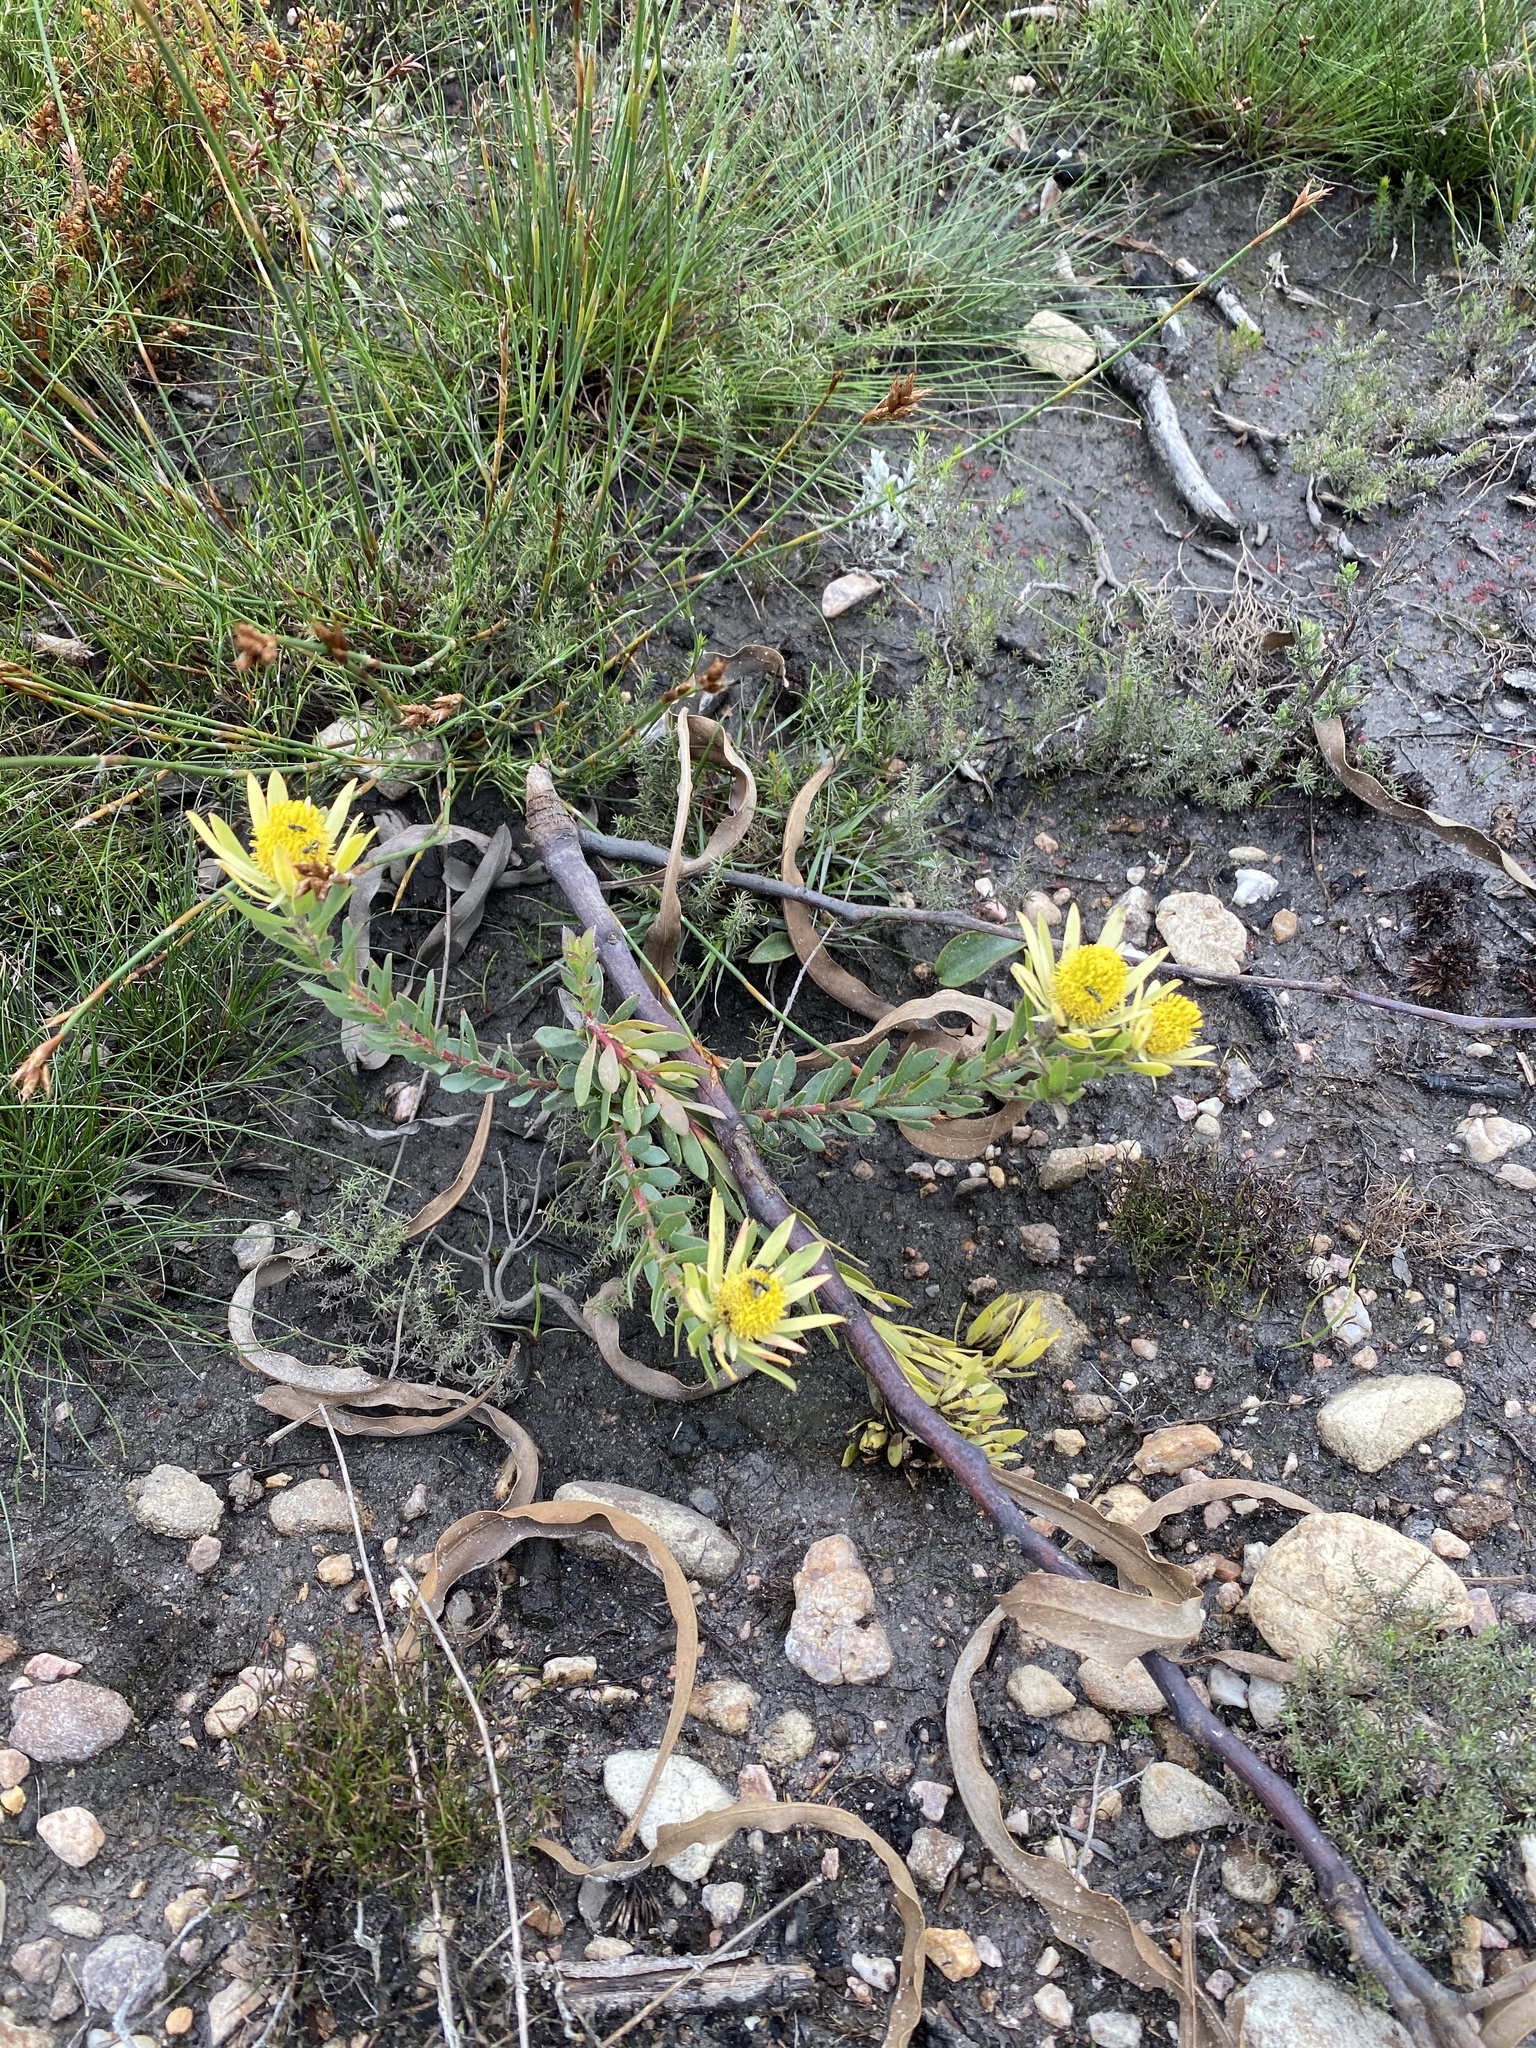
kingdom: Plantae
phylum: Tracheophyta
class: Magnoliopsida
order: Proteales
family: Proteaceae
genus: Leucadendron
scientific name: Leucadendron modestum
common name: Rough-leaf conebush
